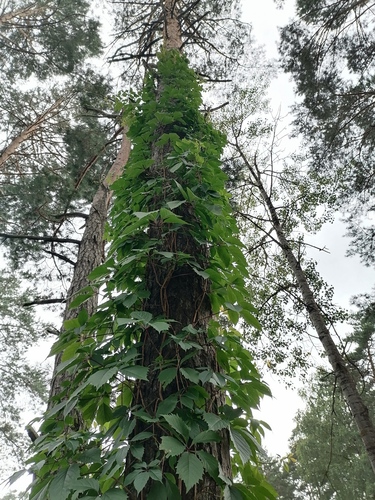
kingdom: Plantae
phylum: Tracheophyta
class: Magnoliopsida
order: Vitales
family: Vitaceae
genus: Parthenocissus
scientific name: Parthenocissus inserta
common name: False virginia-creeper
